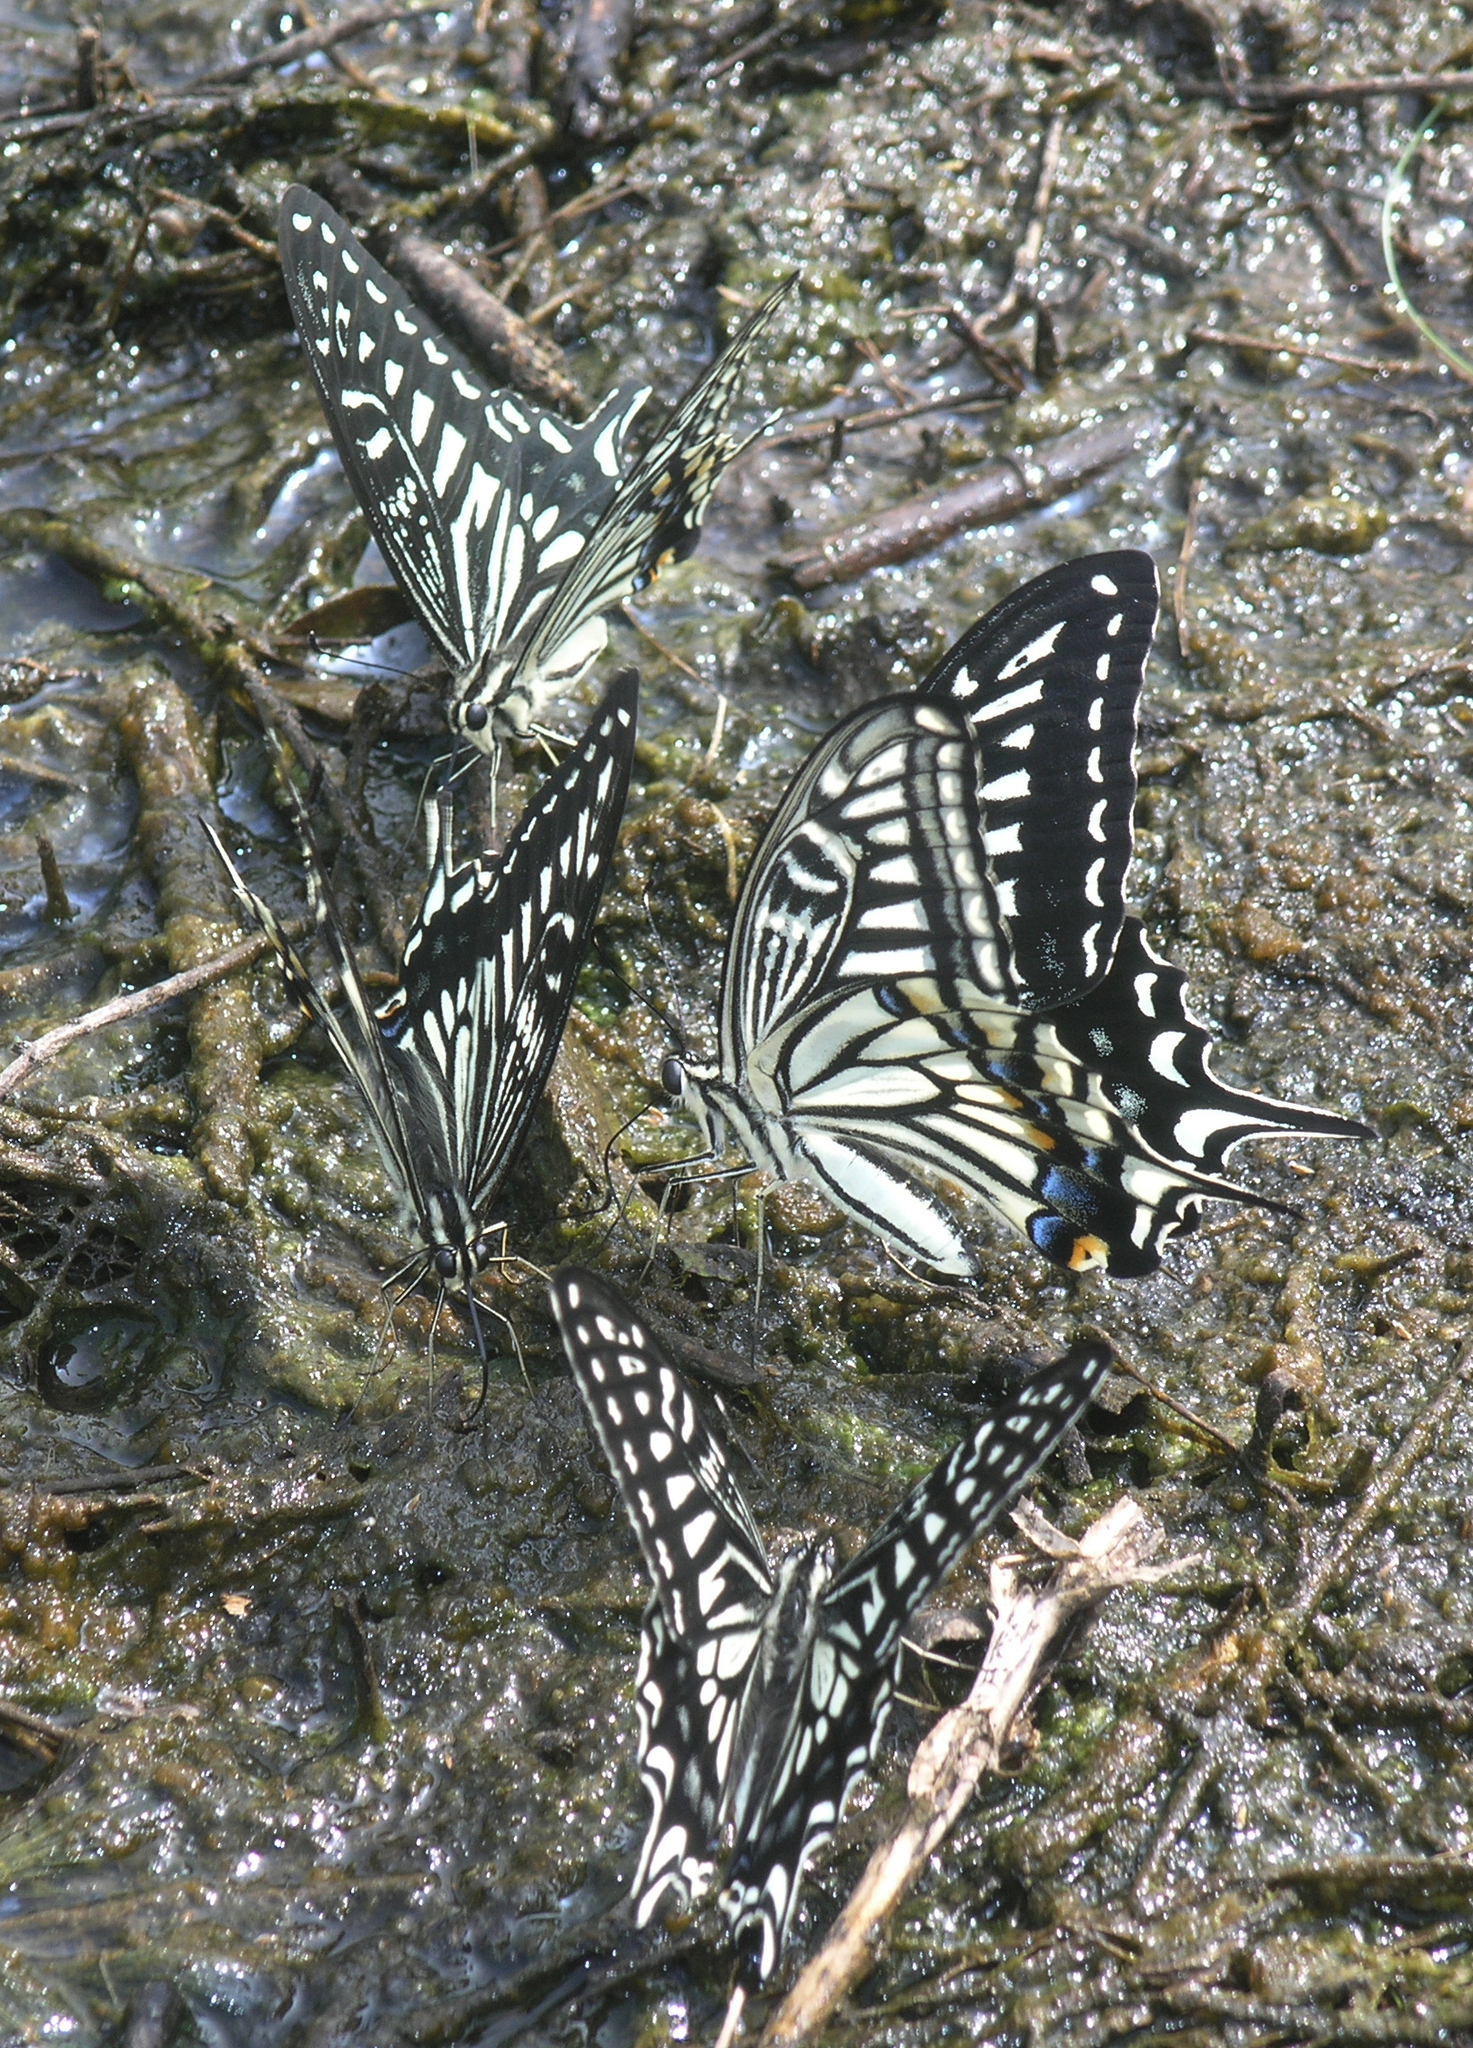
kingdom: Animalia
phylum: Arthropoda
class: Insecta
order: Lepidoptera
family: Papilionidae
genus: Papilio
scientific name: Papilio xuthus
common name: Asian swallowtail
